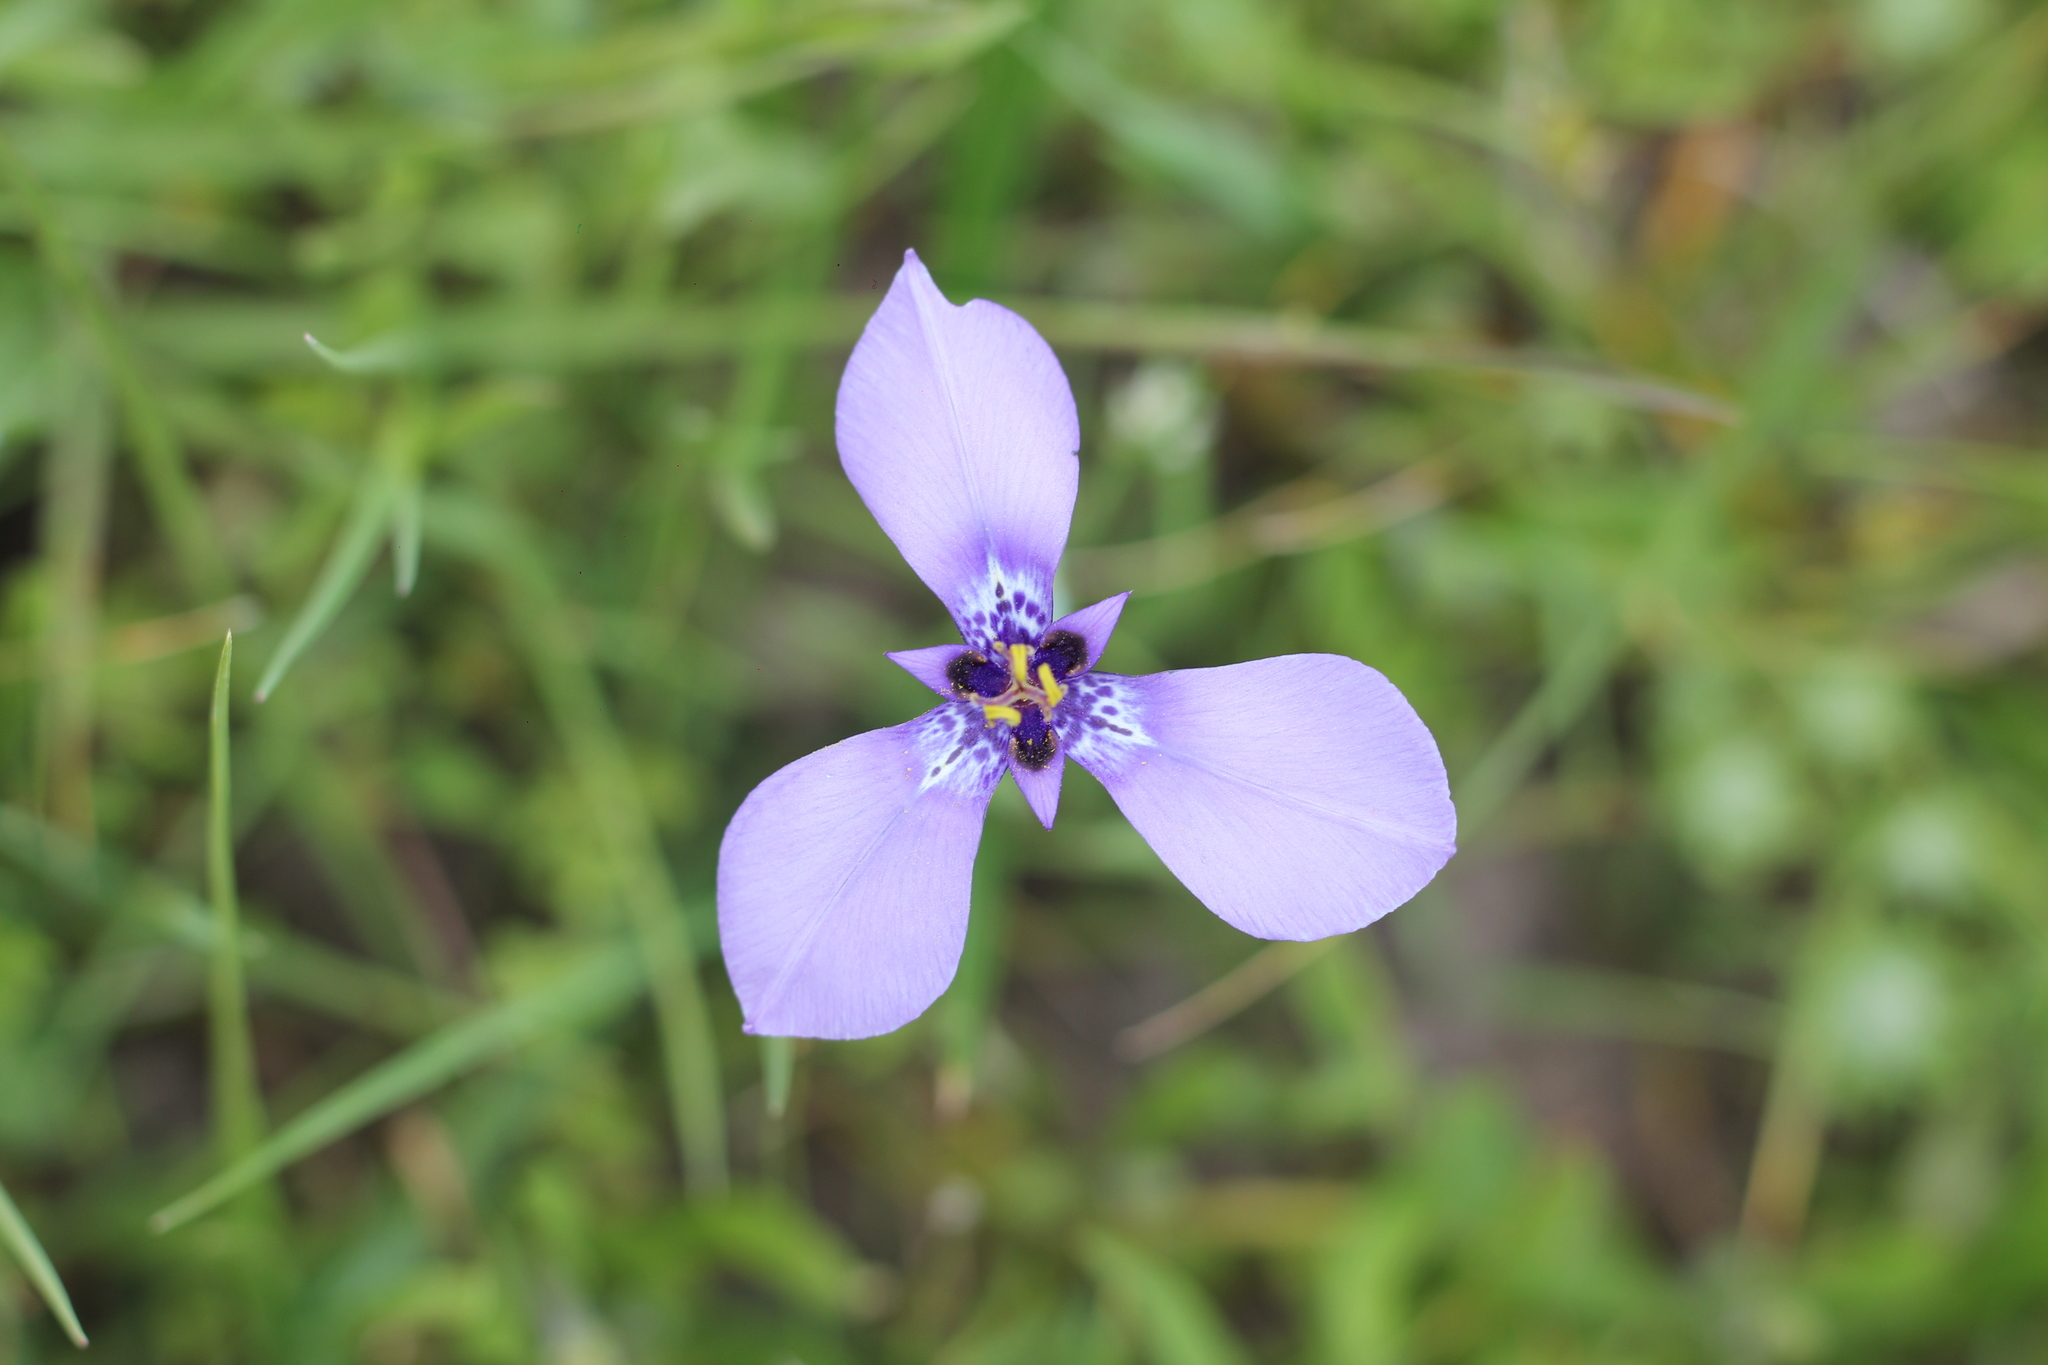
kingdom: Plantae
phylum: Tracheophyta
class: Liliopsida
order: Asparagales
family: Iridaceae
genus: Herbertia
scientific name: Herbertia lahue
